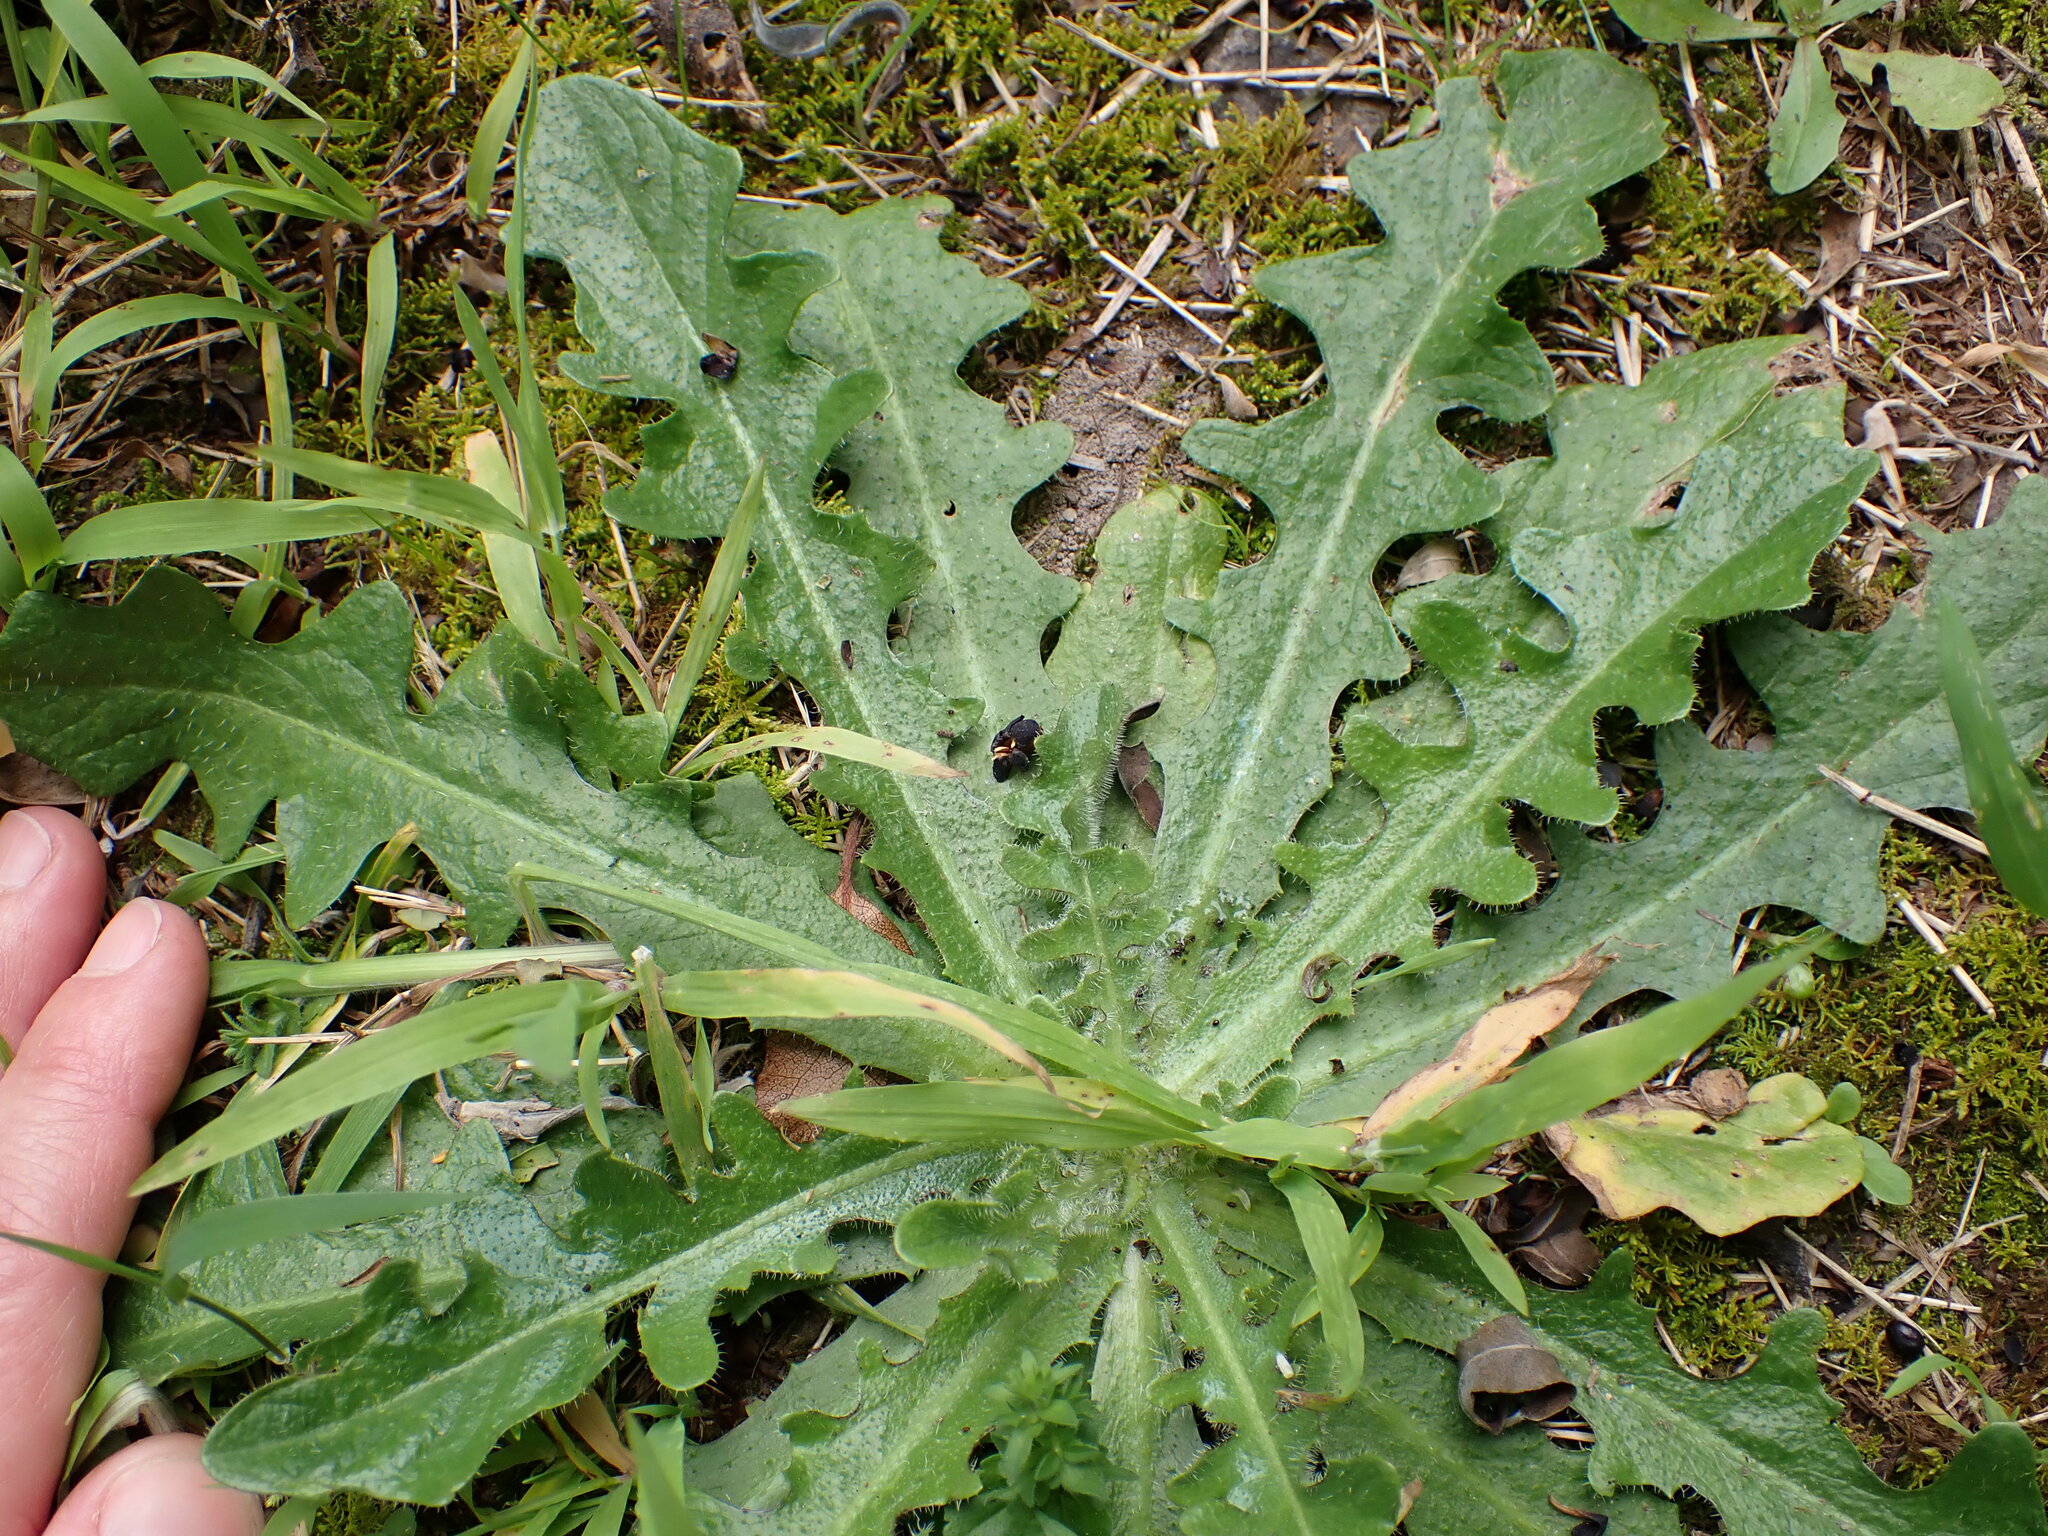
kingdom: Plantae
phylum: Tracheophyta
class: Magnoliopsida
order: Asterales
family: Asteraceae
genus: Hypochaeris
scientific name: Hypochaeris radicata
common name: Flatweed
